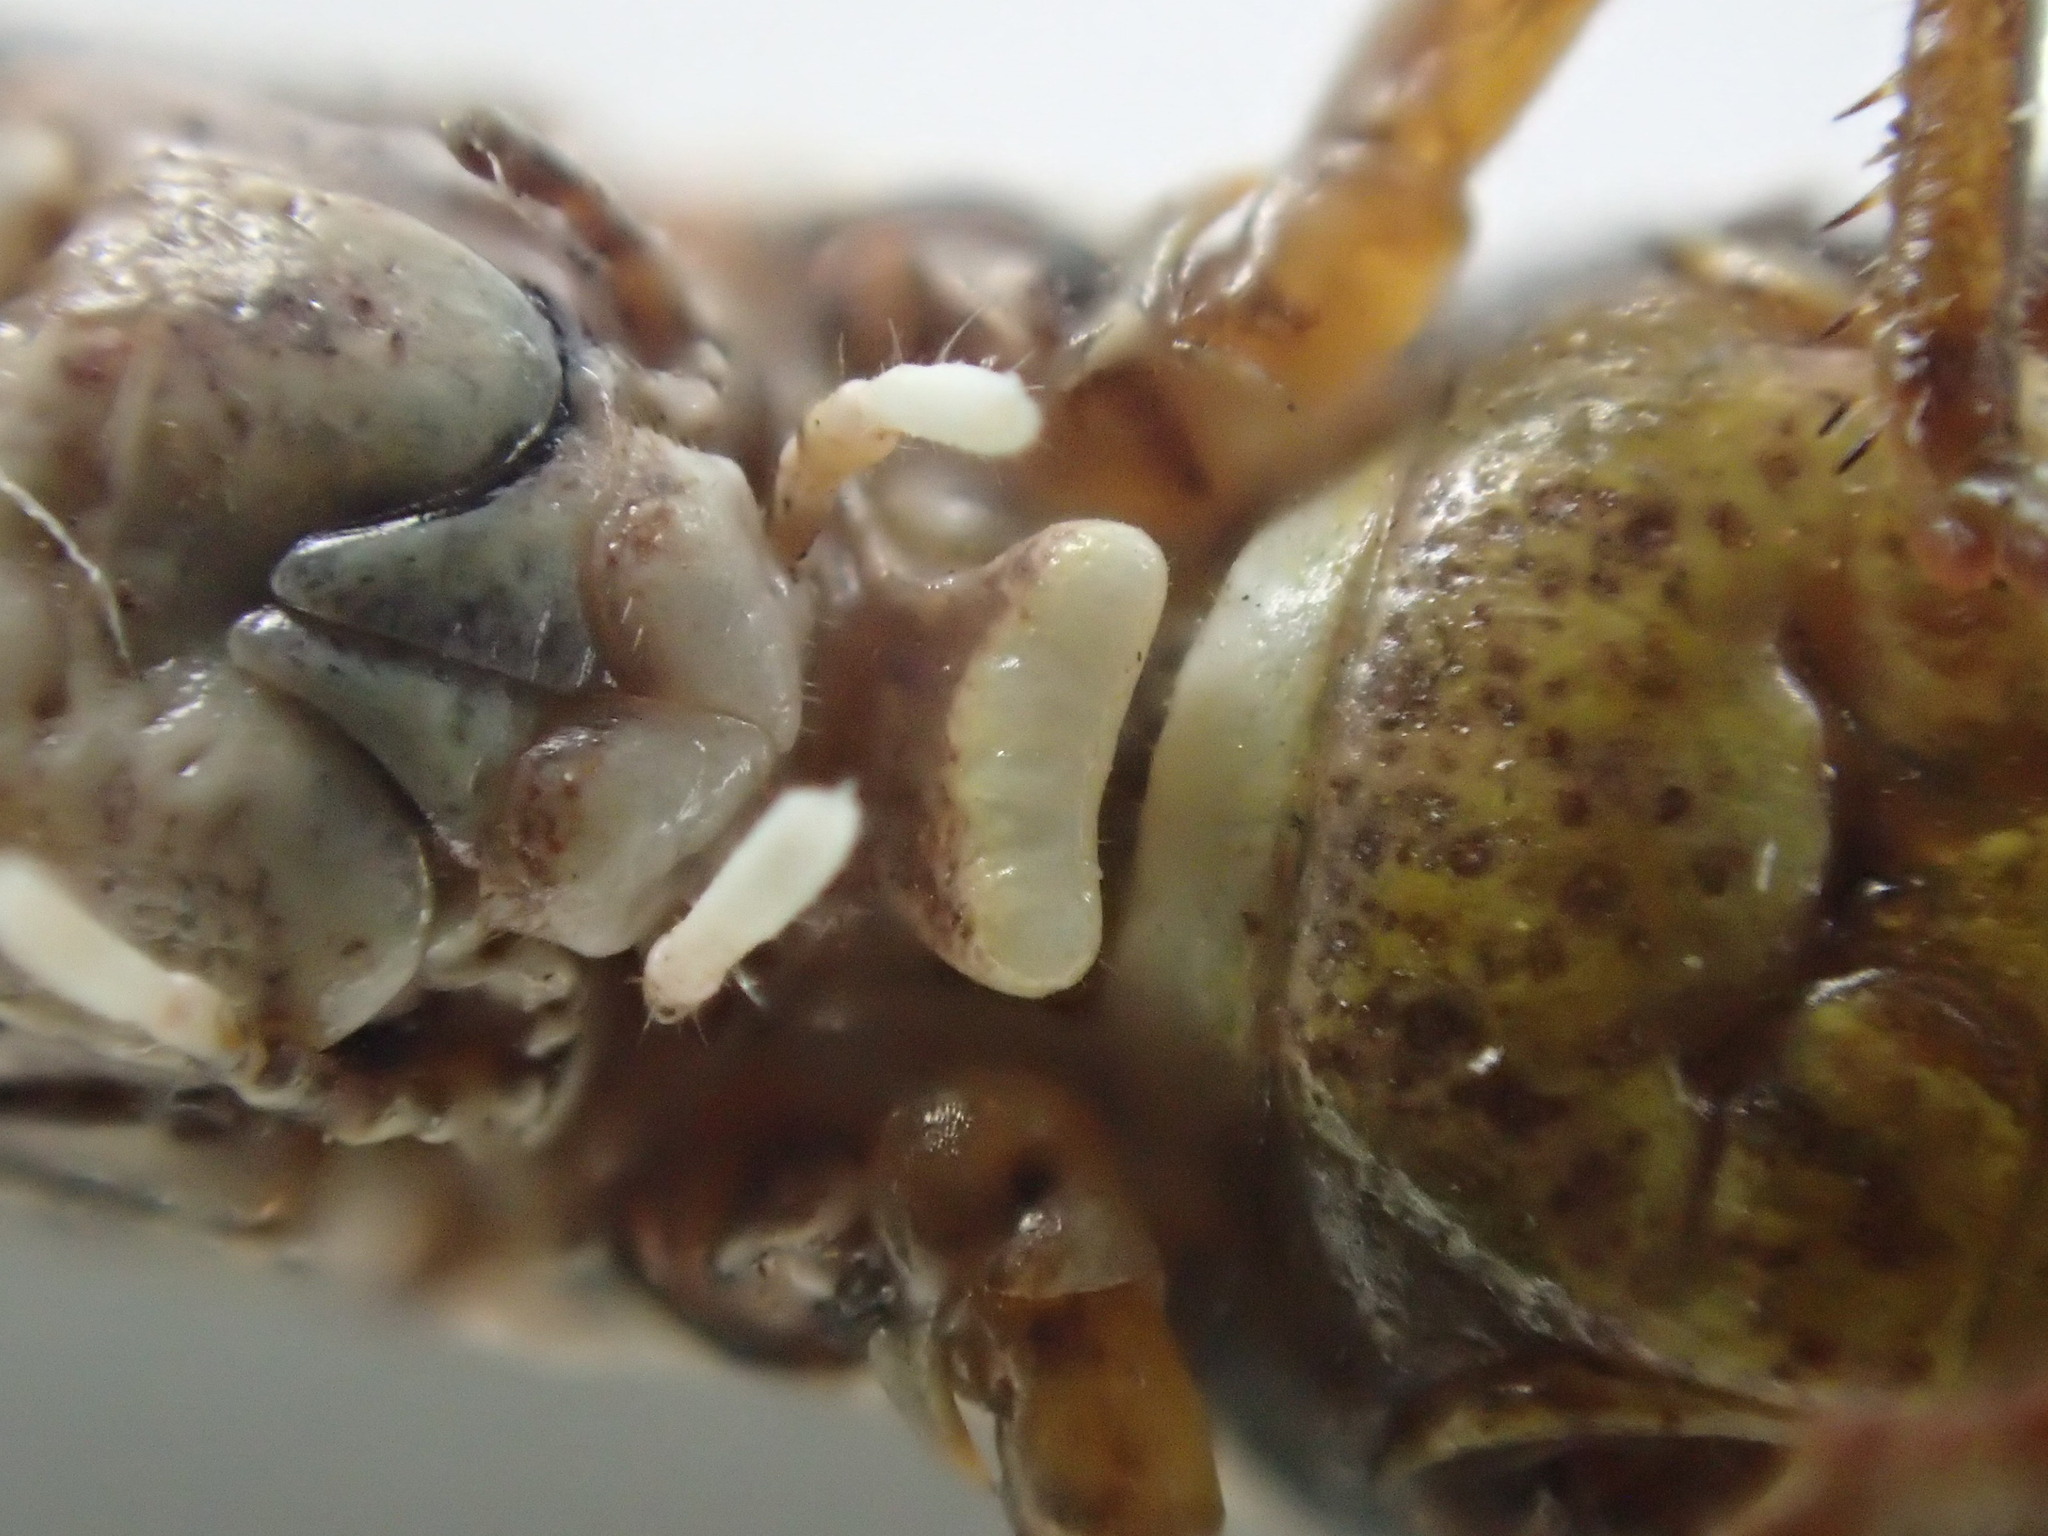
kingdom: Animalia
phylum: Arthropoda
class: Insecta
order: Orthoptera
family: Acrididae
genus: Macrotona
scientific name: Macrotona australis
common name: Common macrotona
